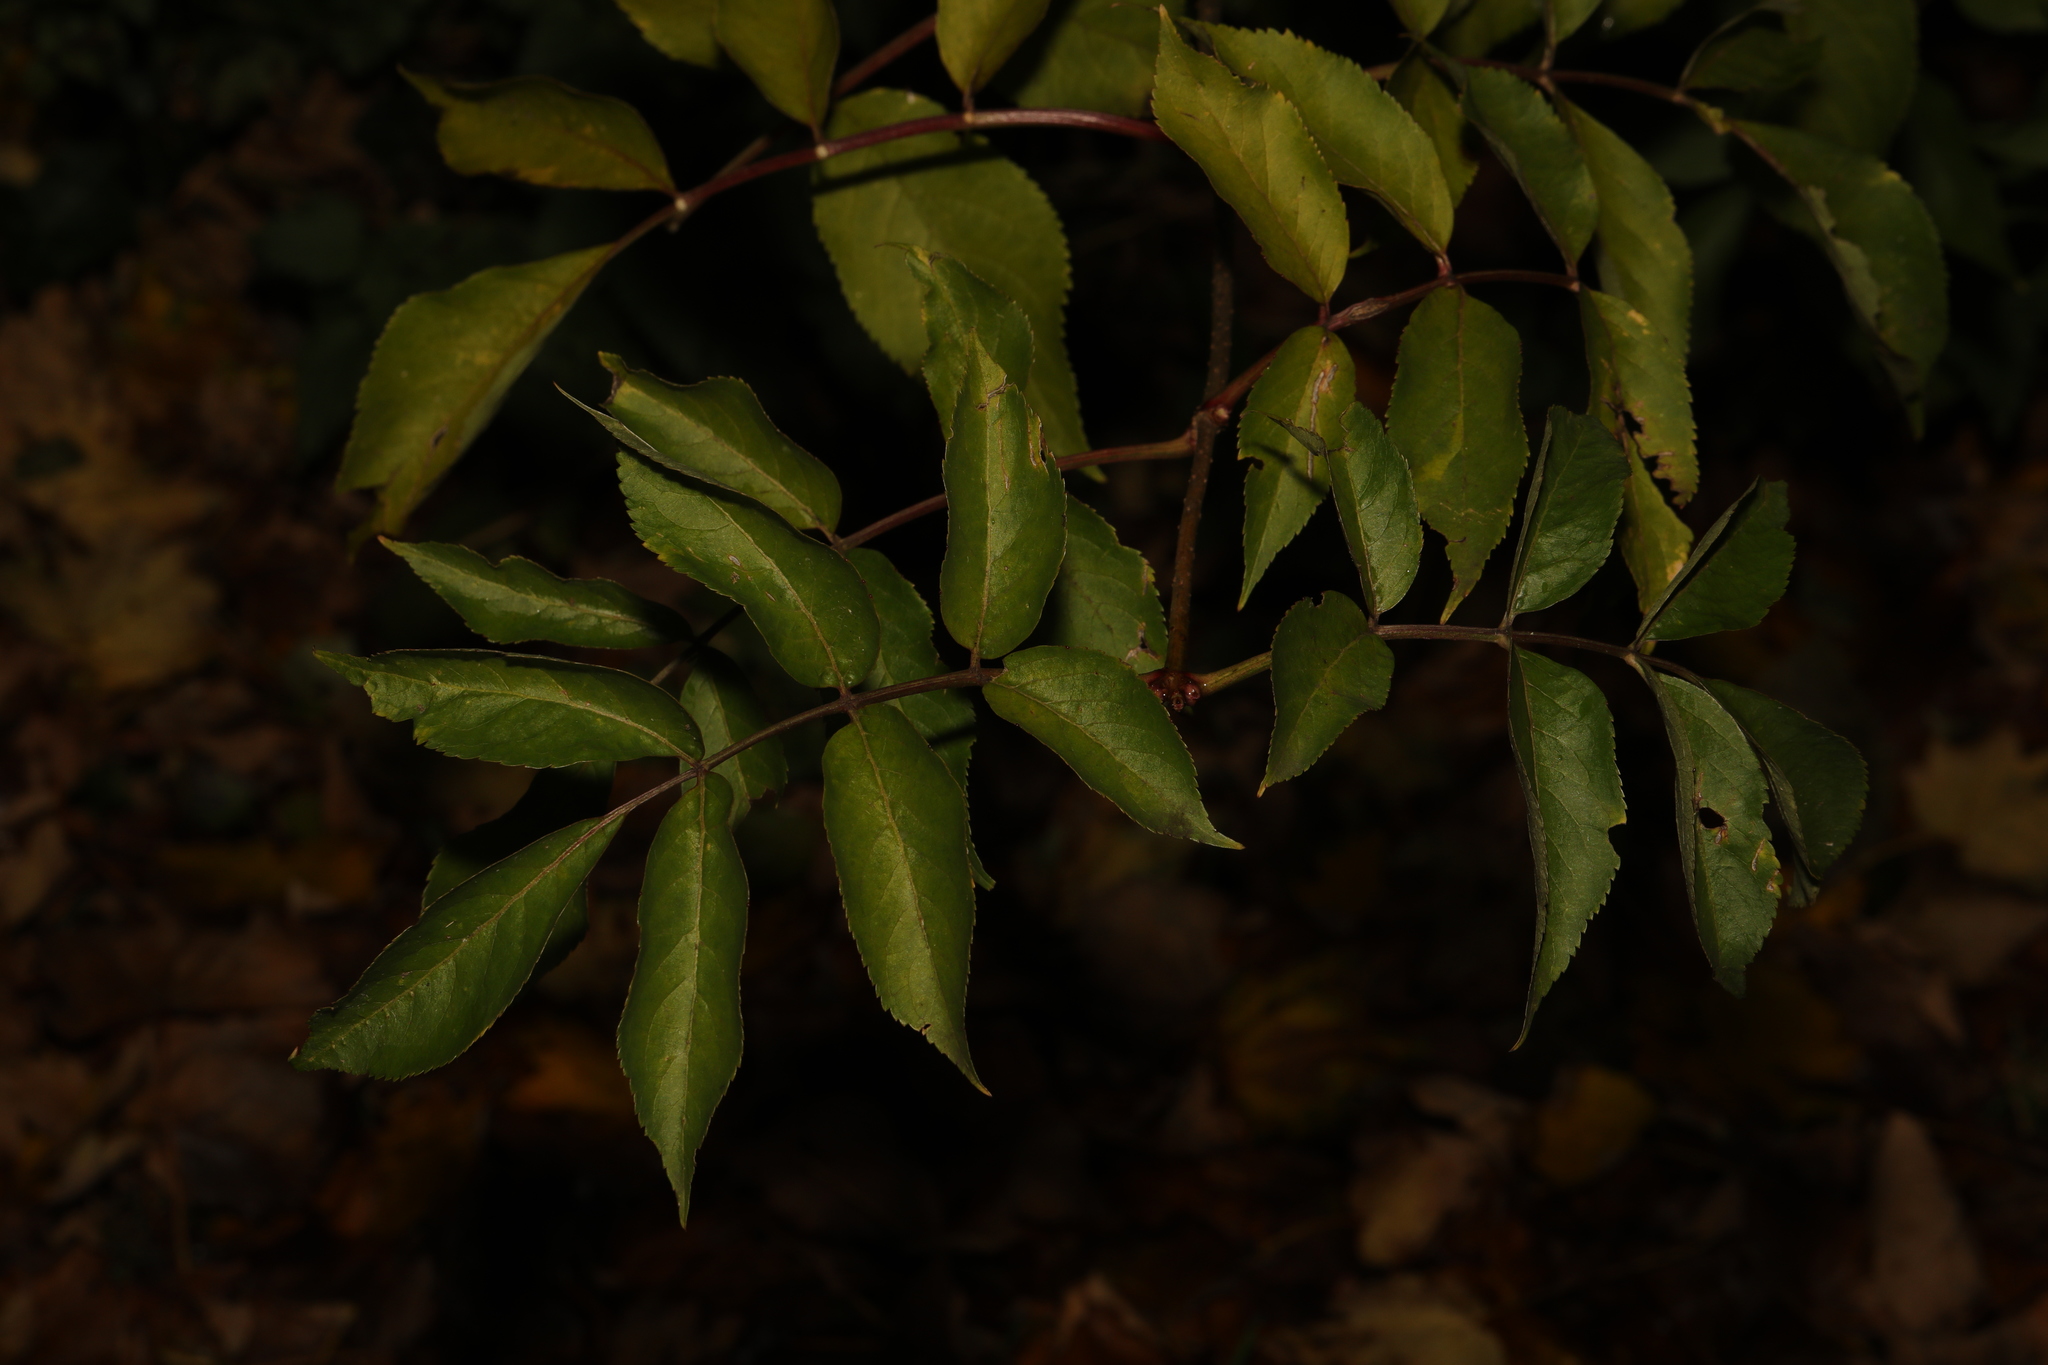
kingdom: Plantae
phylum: Tracheophyta
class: Magnoliopsida
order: Dipsacales
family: Viburnaceae
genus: Sambucus
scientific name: Sambucus nigra
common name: Elder
